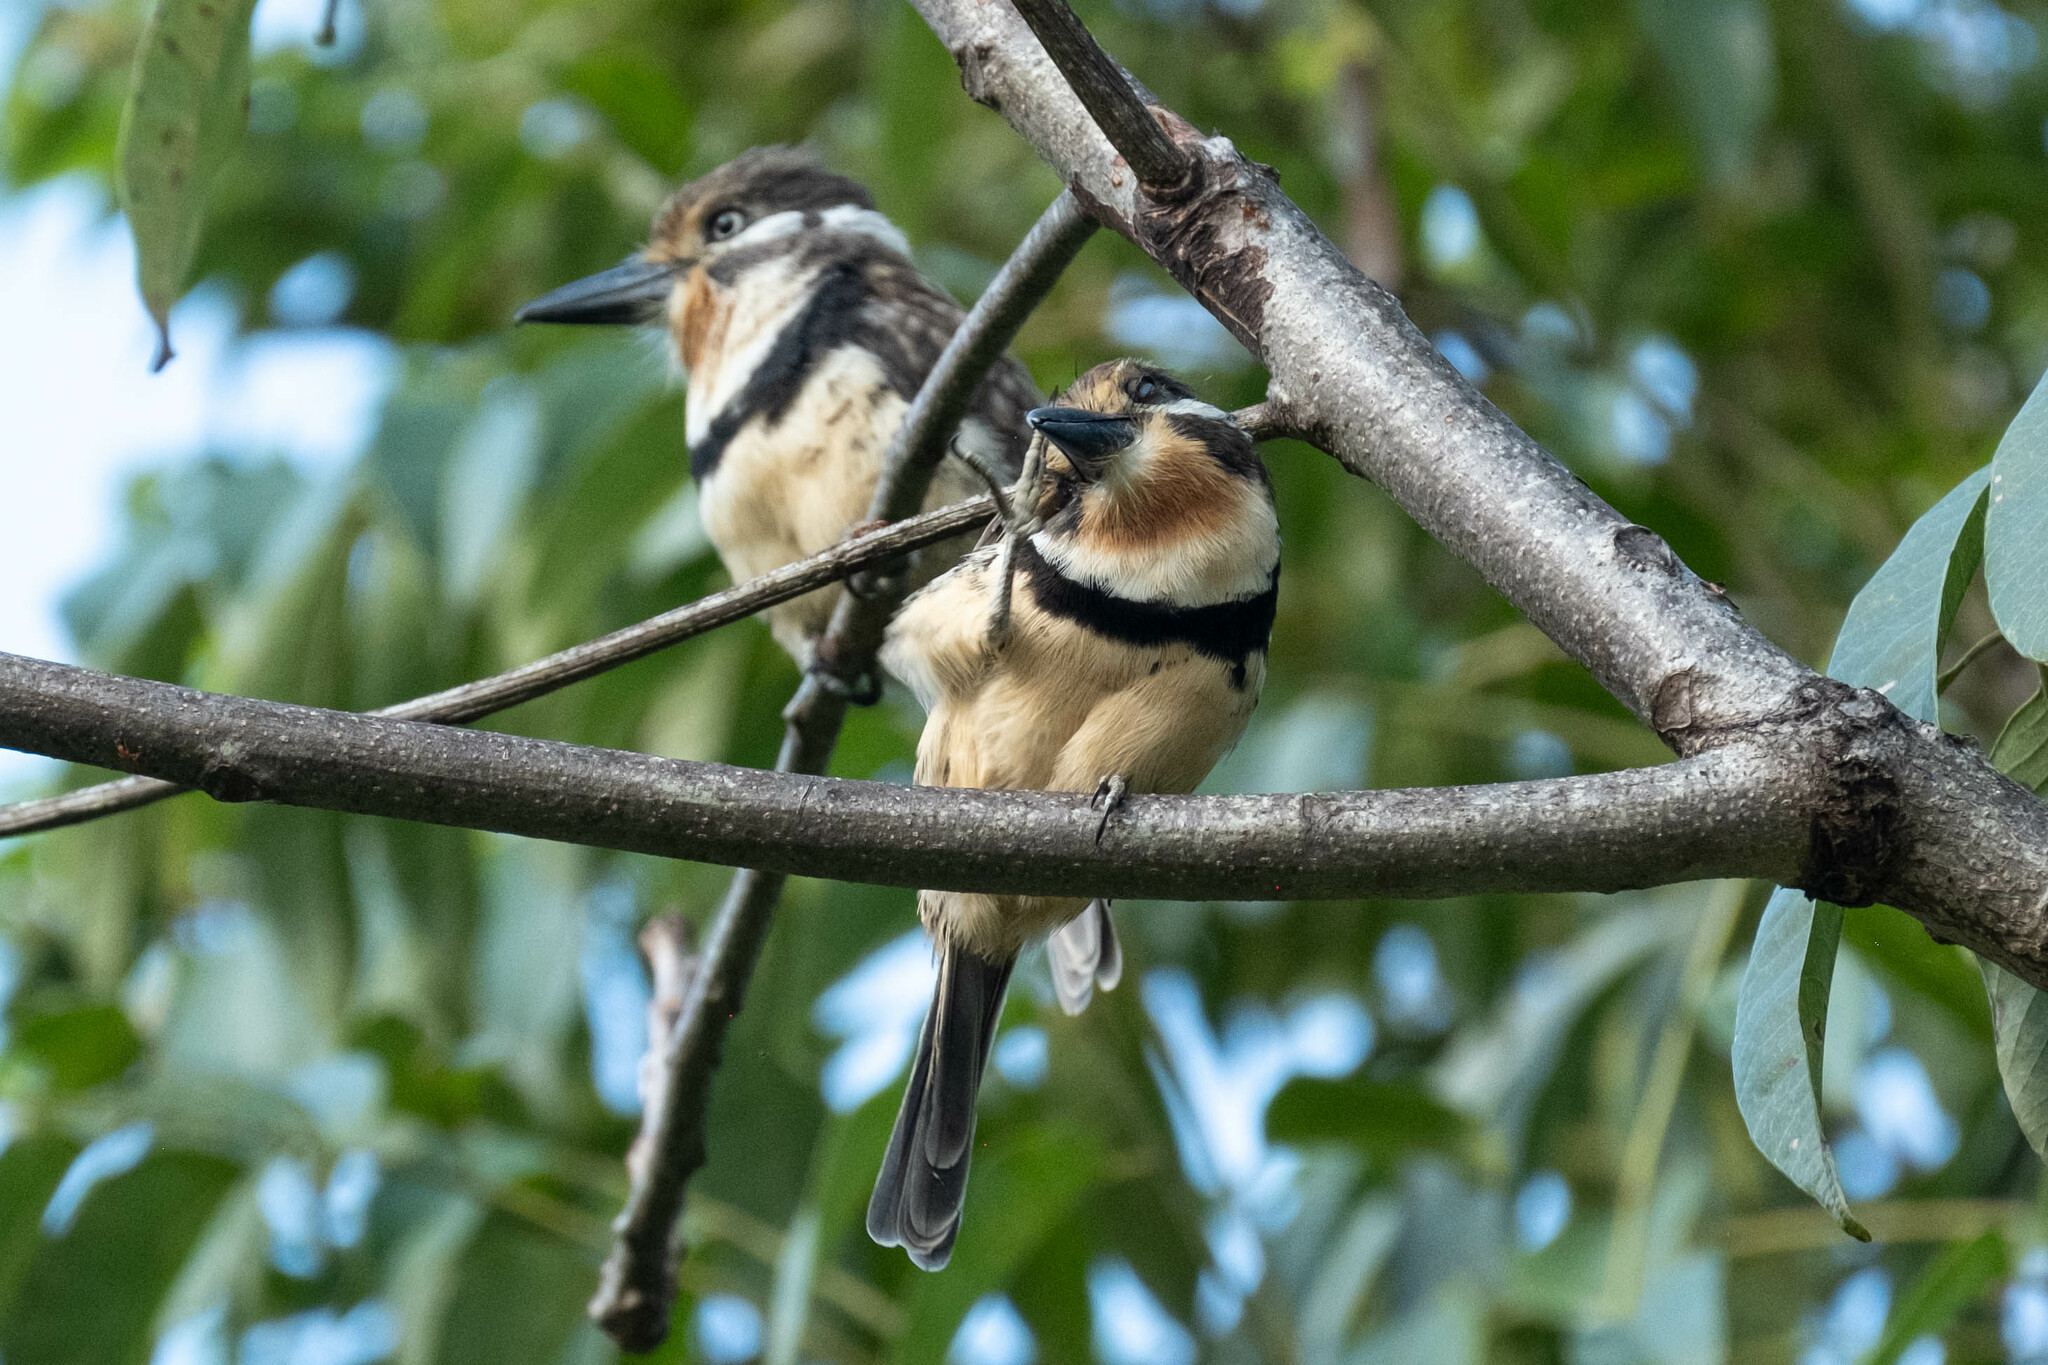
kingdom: Animalia
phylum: Chordata
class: Aves
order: Piciformes
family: Bucconidae
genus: Hypnelus
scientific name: Hypnelus ruficollis
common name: Russet-throated puffbird
